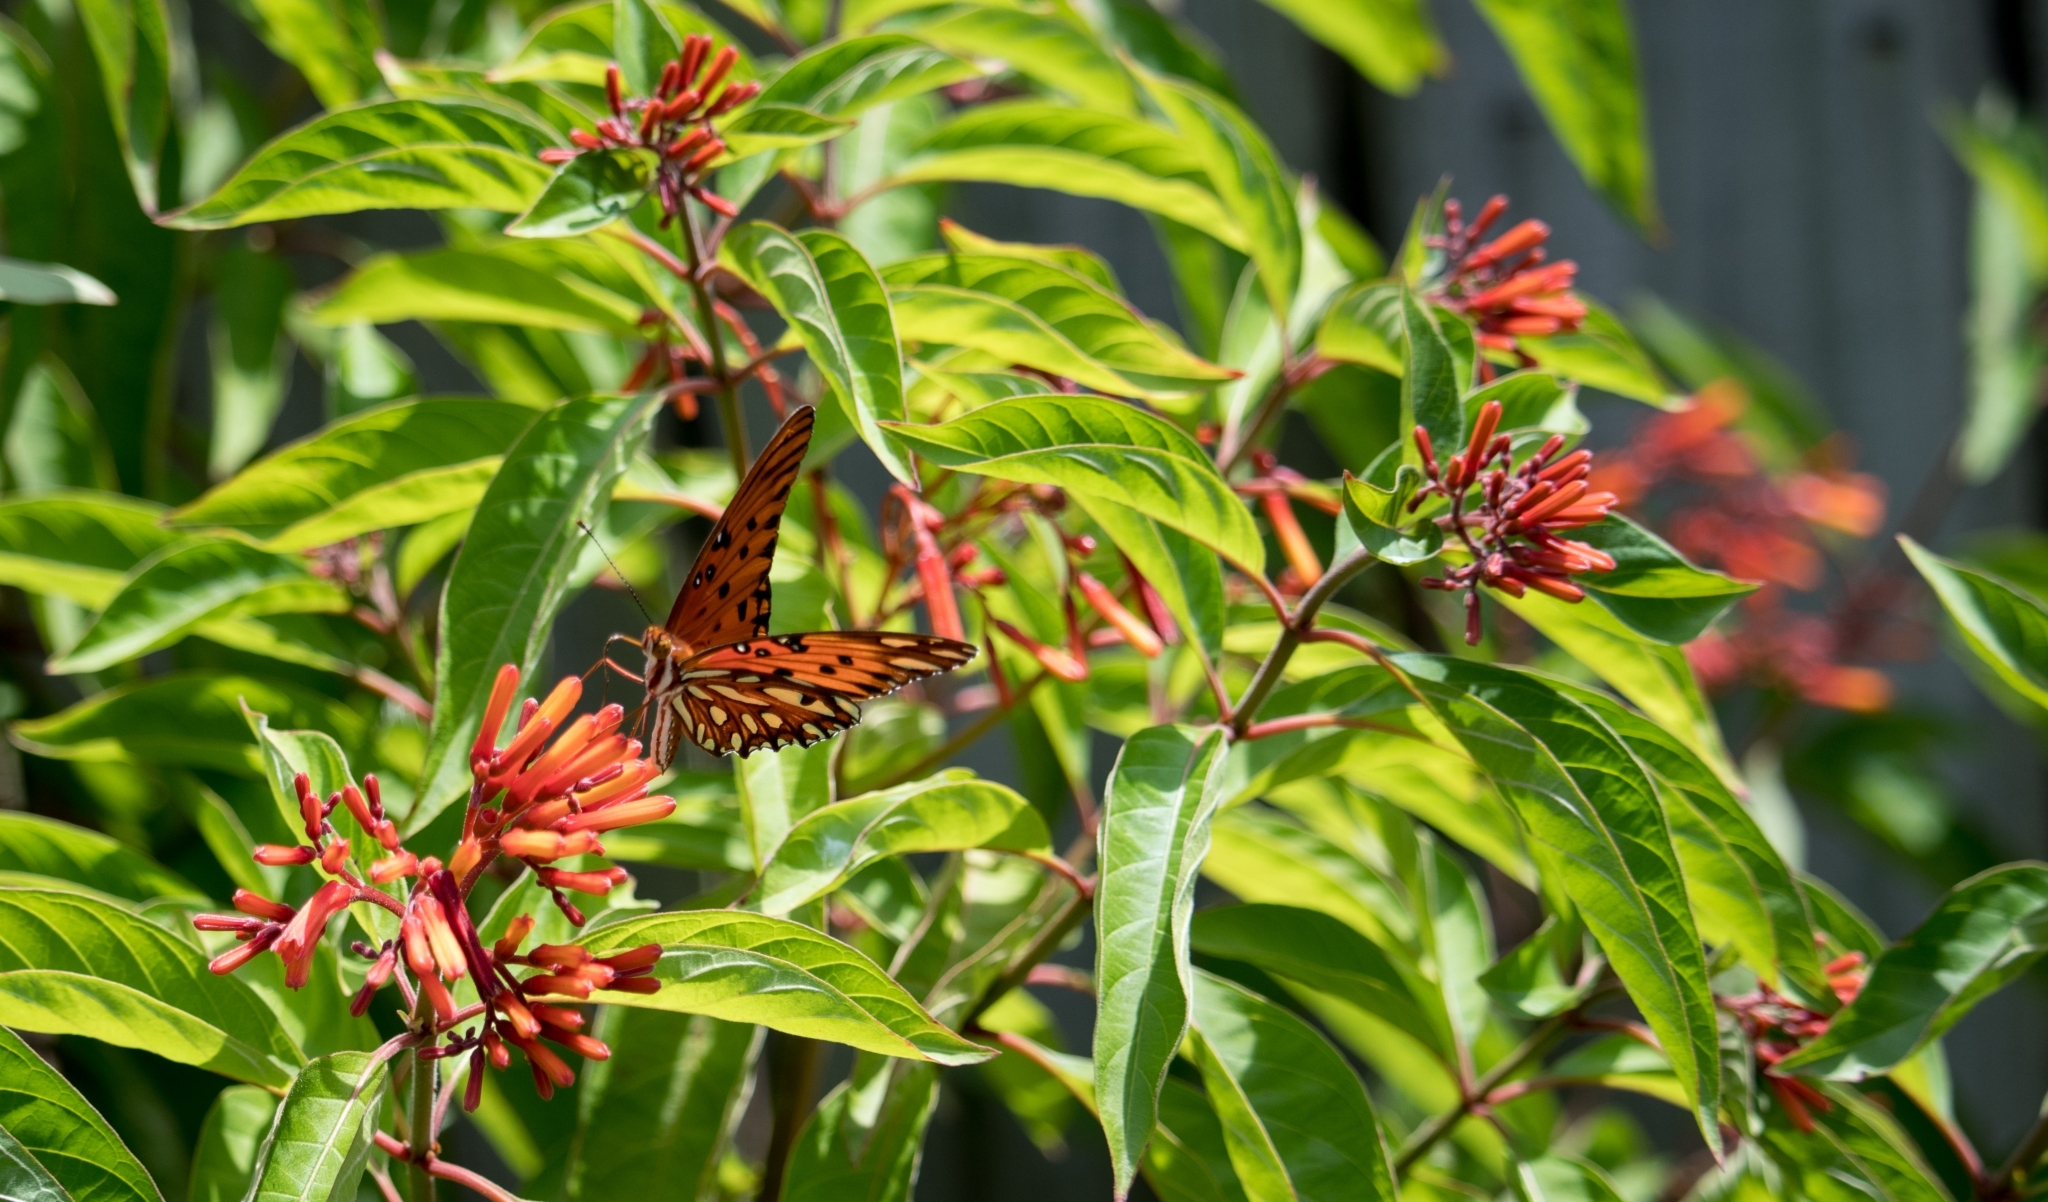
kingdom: Animalia
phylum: Arthropoda
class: Insecta
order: Lepidoptera
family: Nymphalidae
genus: Dione
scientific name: Dione vanillae
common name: Gulf fritillary
